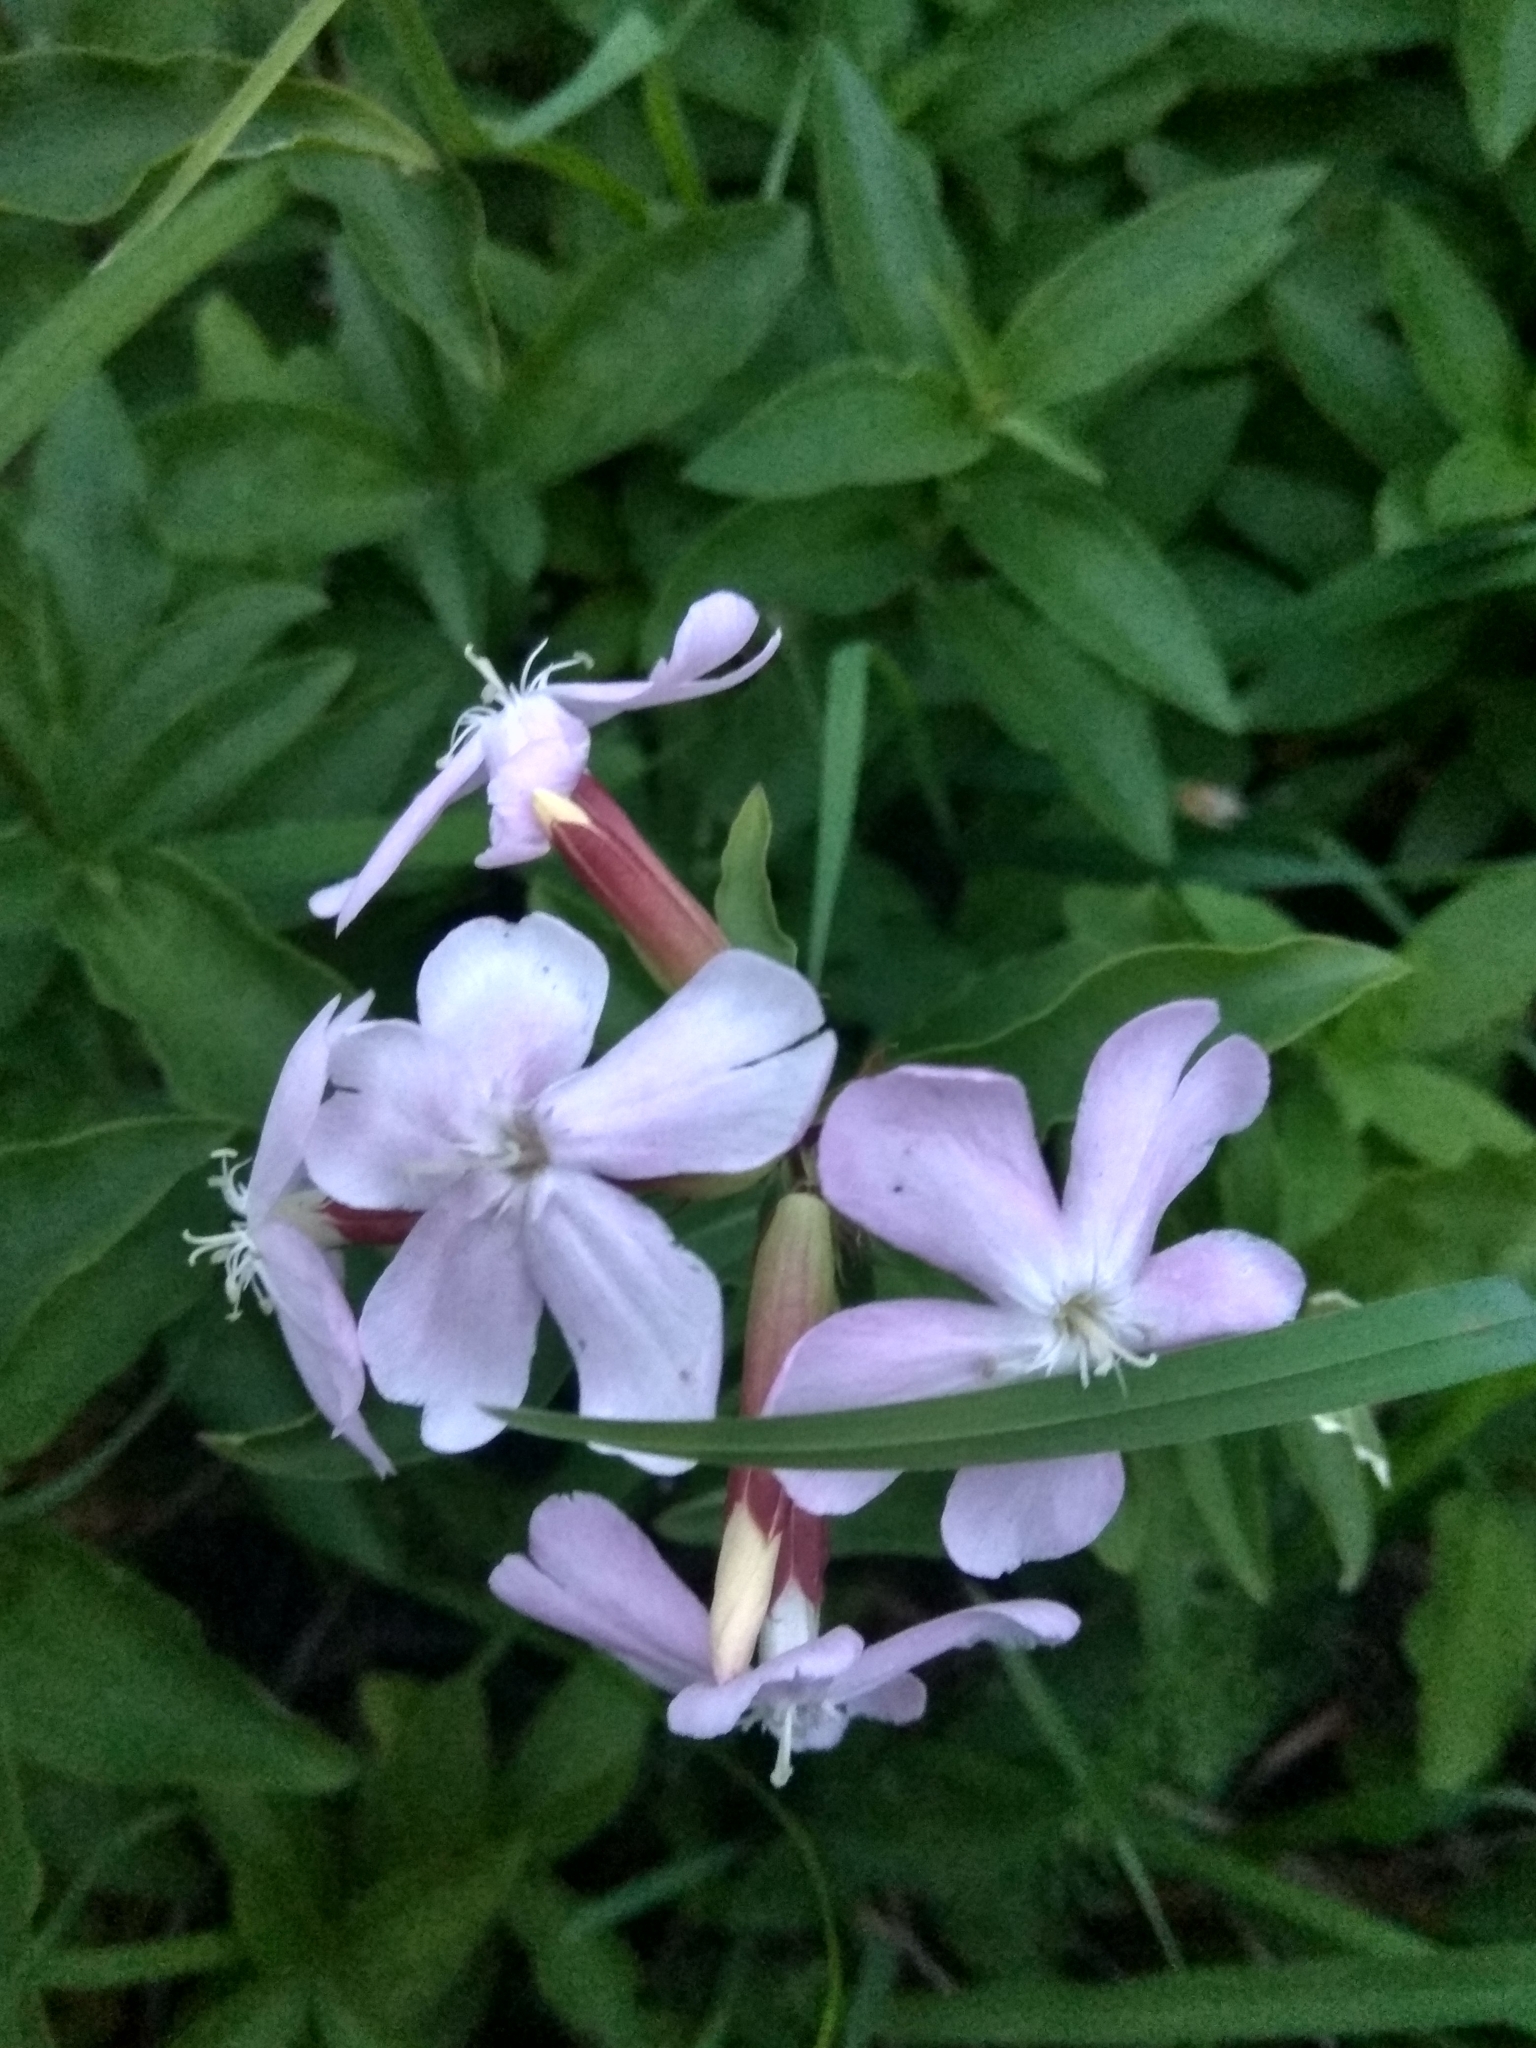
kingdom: Plantae
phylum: Tracheophyta
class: Magnoliopsida
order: Caryophyllales
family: Caryophyllaceae
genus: Saponaria
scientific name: Saponaria officinalis
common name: Soapwort
